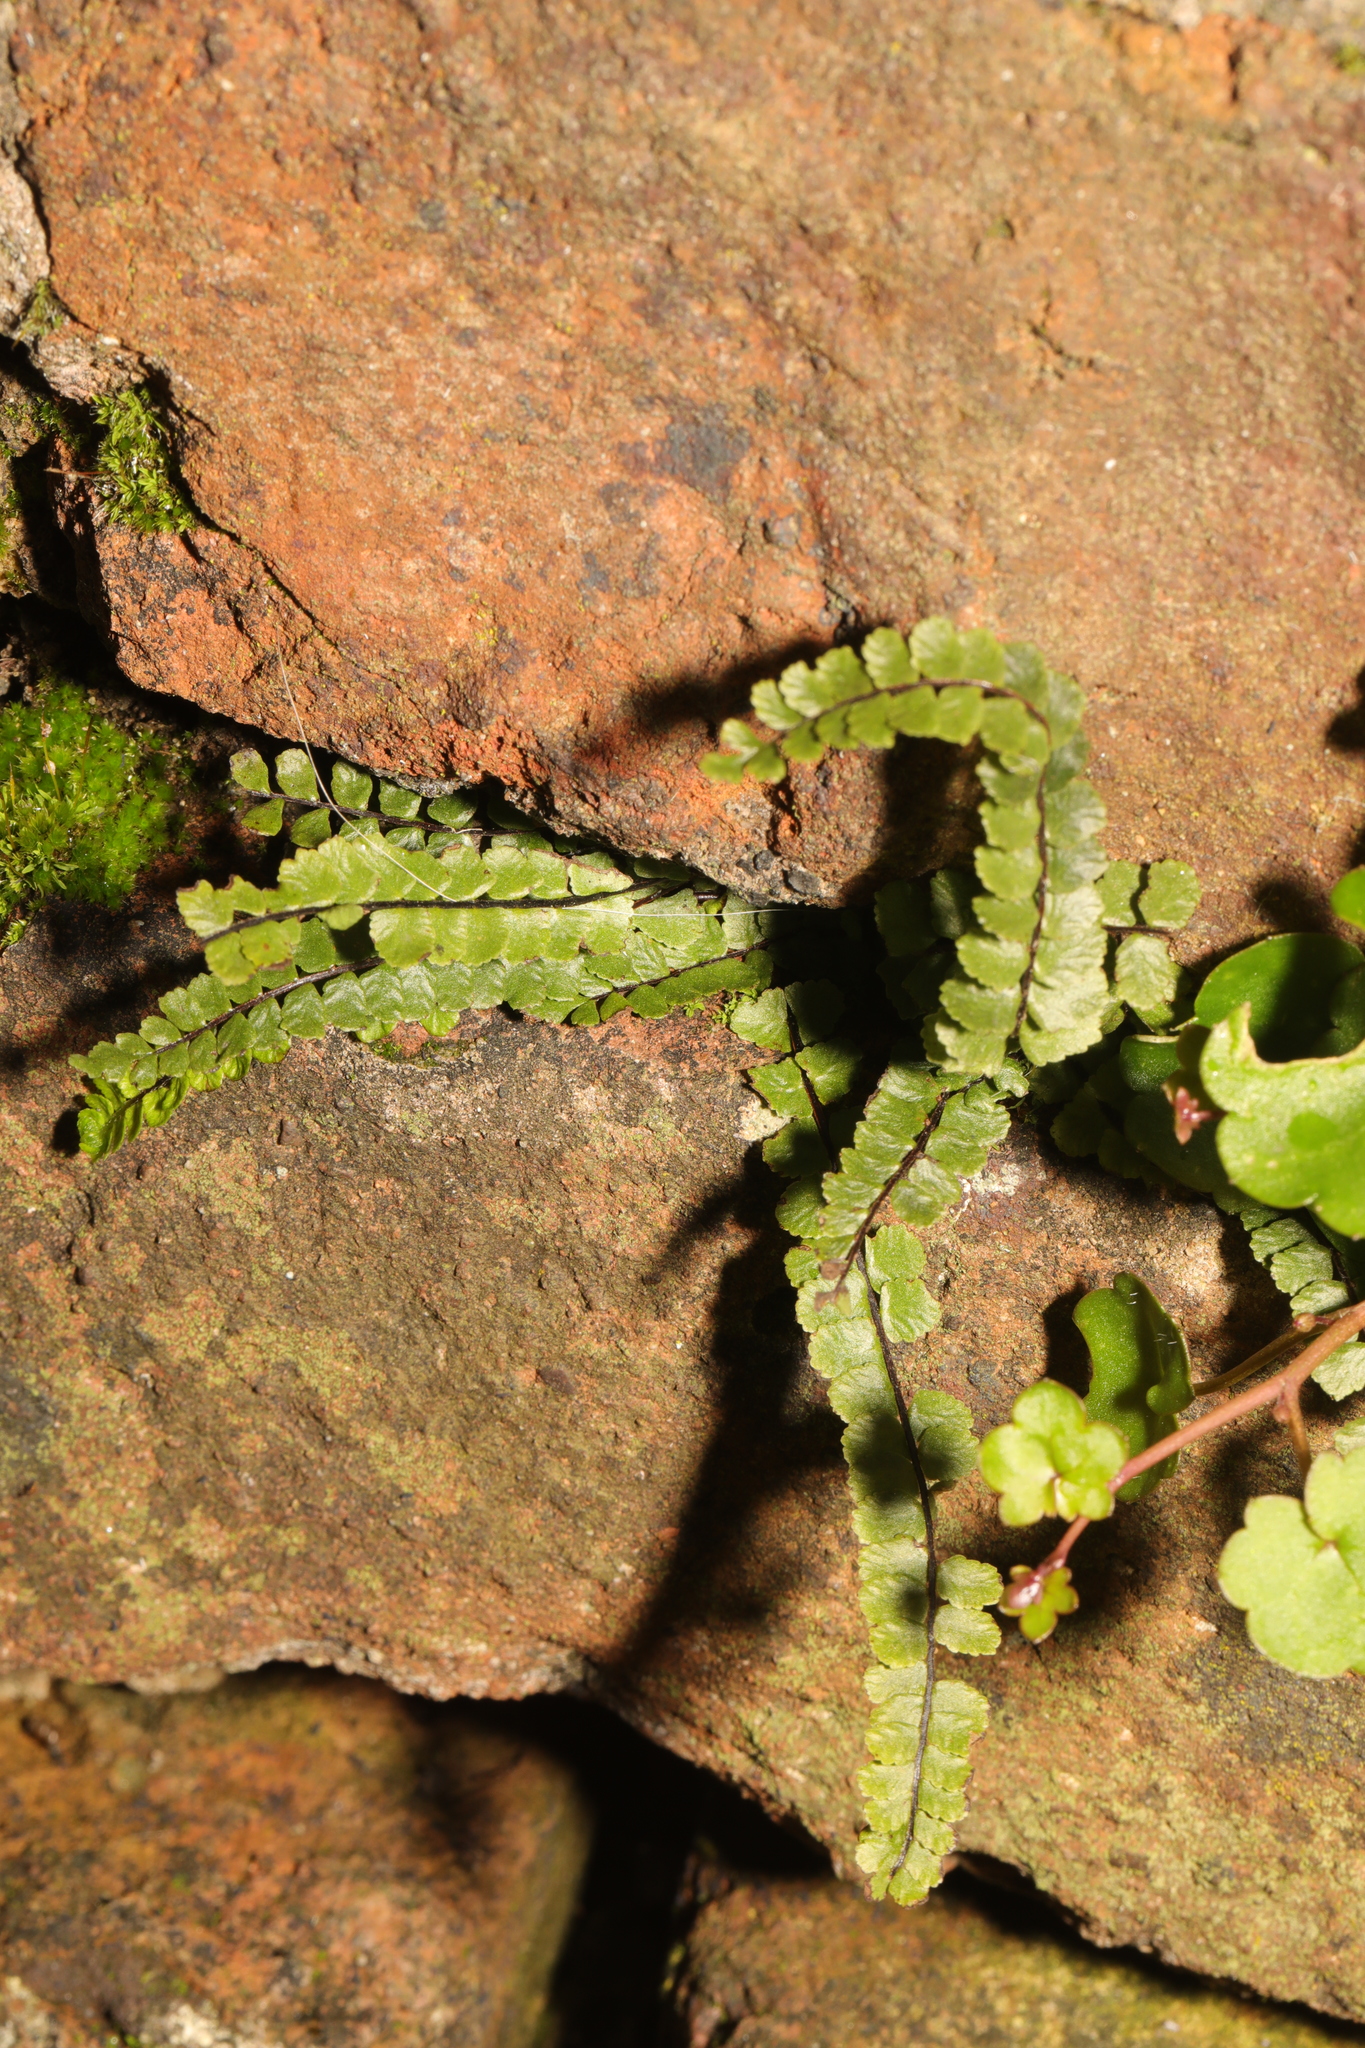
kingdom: Plantae
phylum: Tracheophyta
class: Polypodiopsida
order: Polypodiales
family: Aspleniaceae
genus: Asplenium
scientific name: Asplenium trichomanes
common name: Maidenhair spleenwort
